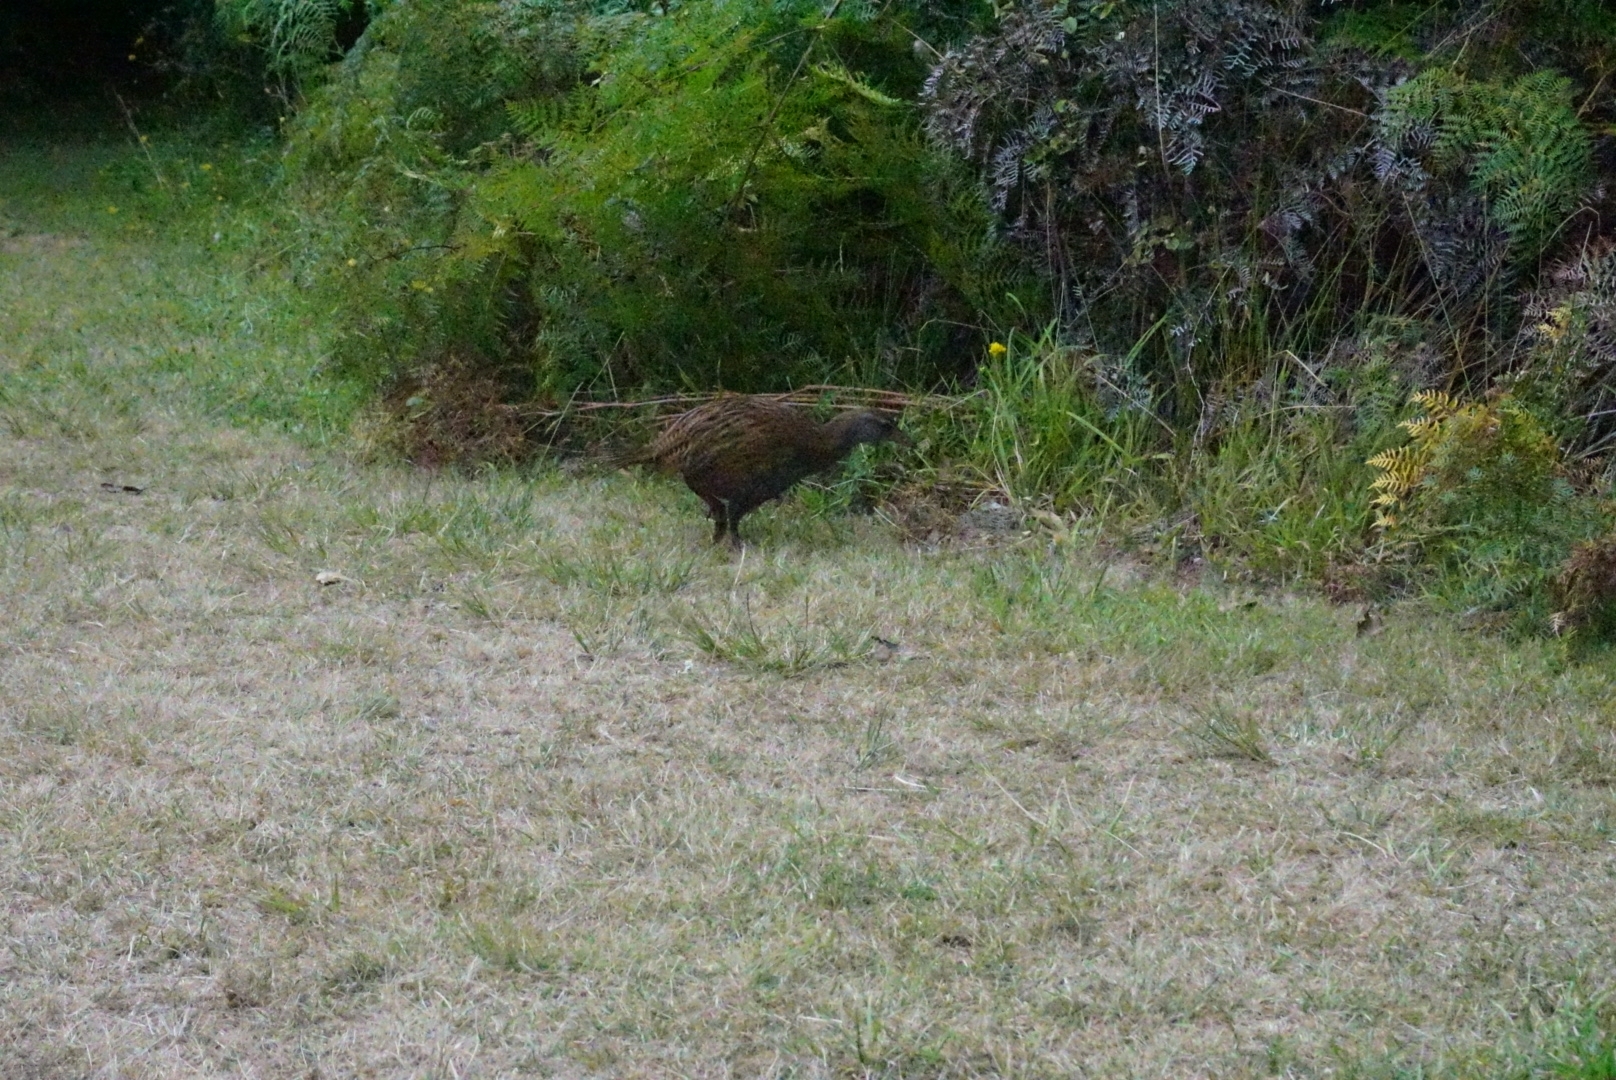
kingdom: Animalia
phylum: Chordata
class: Aves
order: Gruiformes
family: Rallidae
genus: Gallirallus
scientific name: Gallirallus
